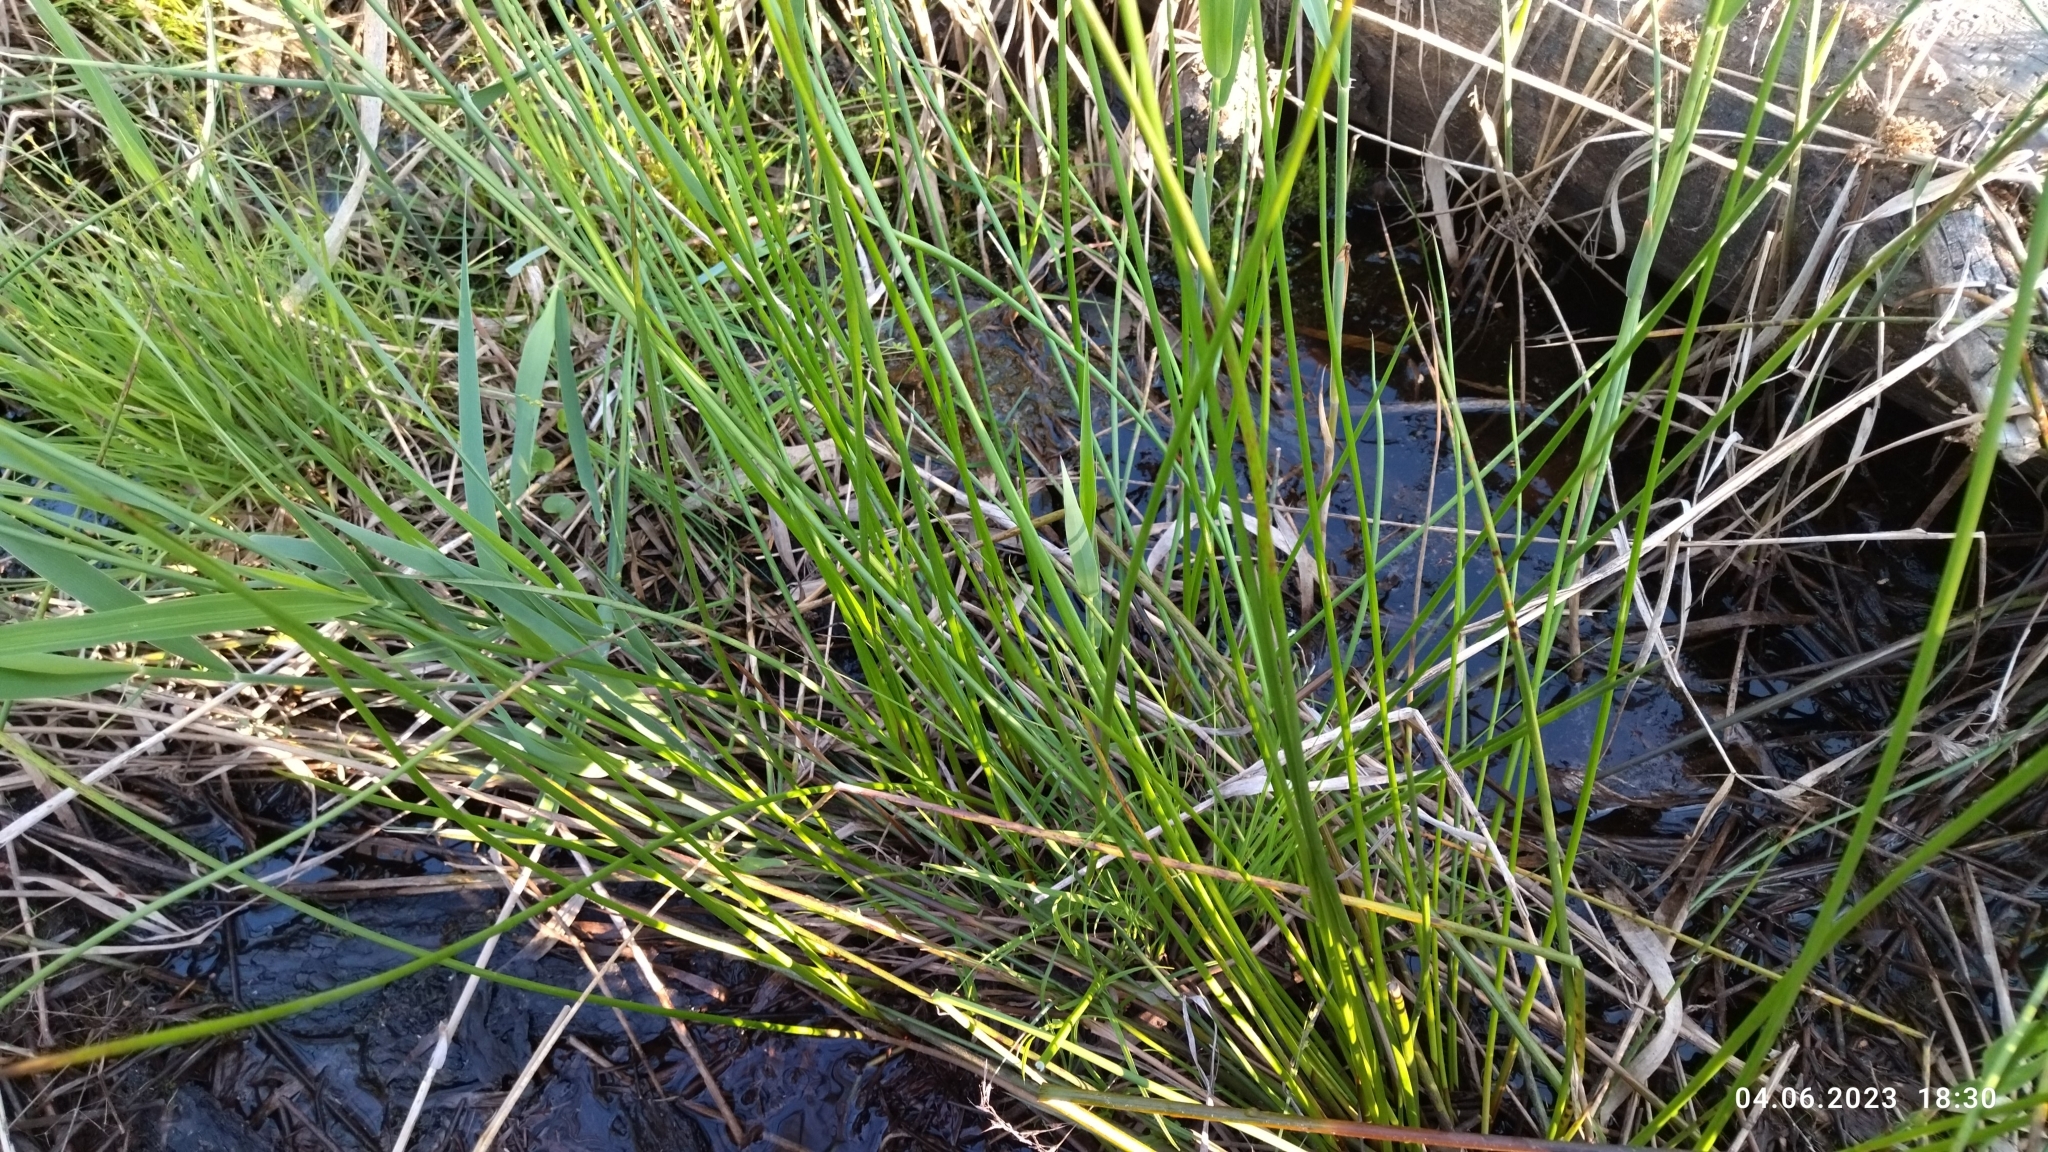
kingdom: Plantae
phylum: Tracheophyta
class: Liliopsida
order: Poales
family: Juncaceae
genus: Juncus
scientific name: Juncus effusus
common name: Soft rush
